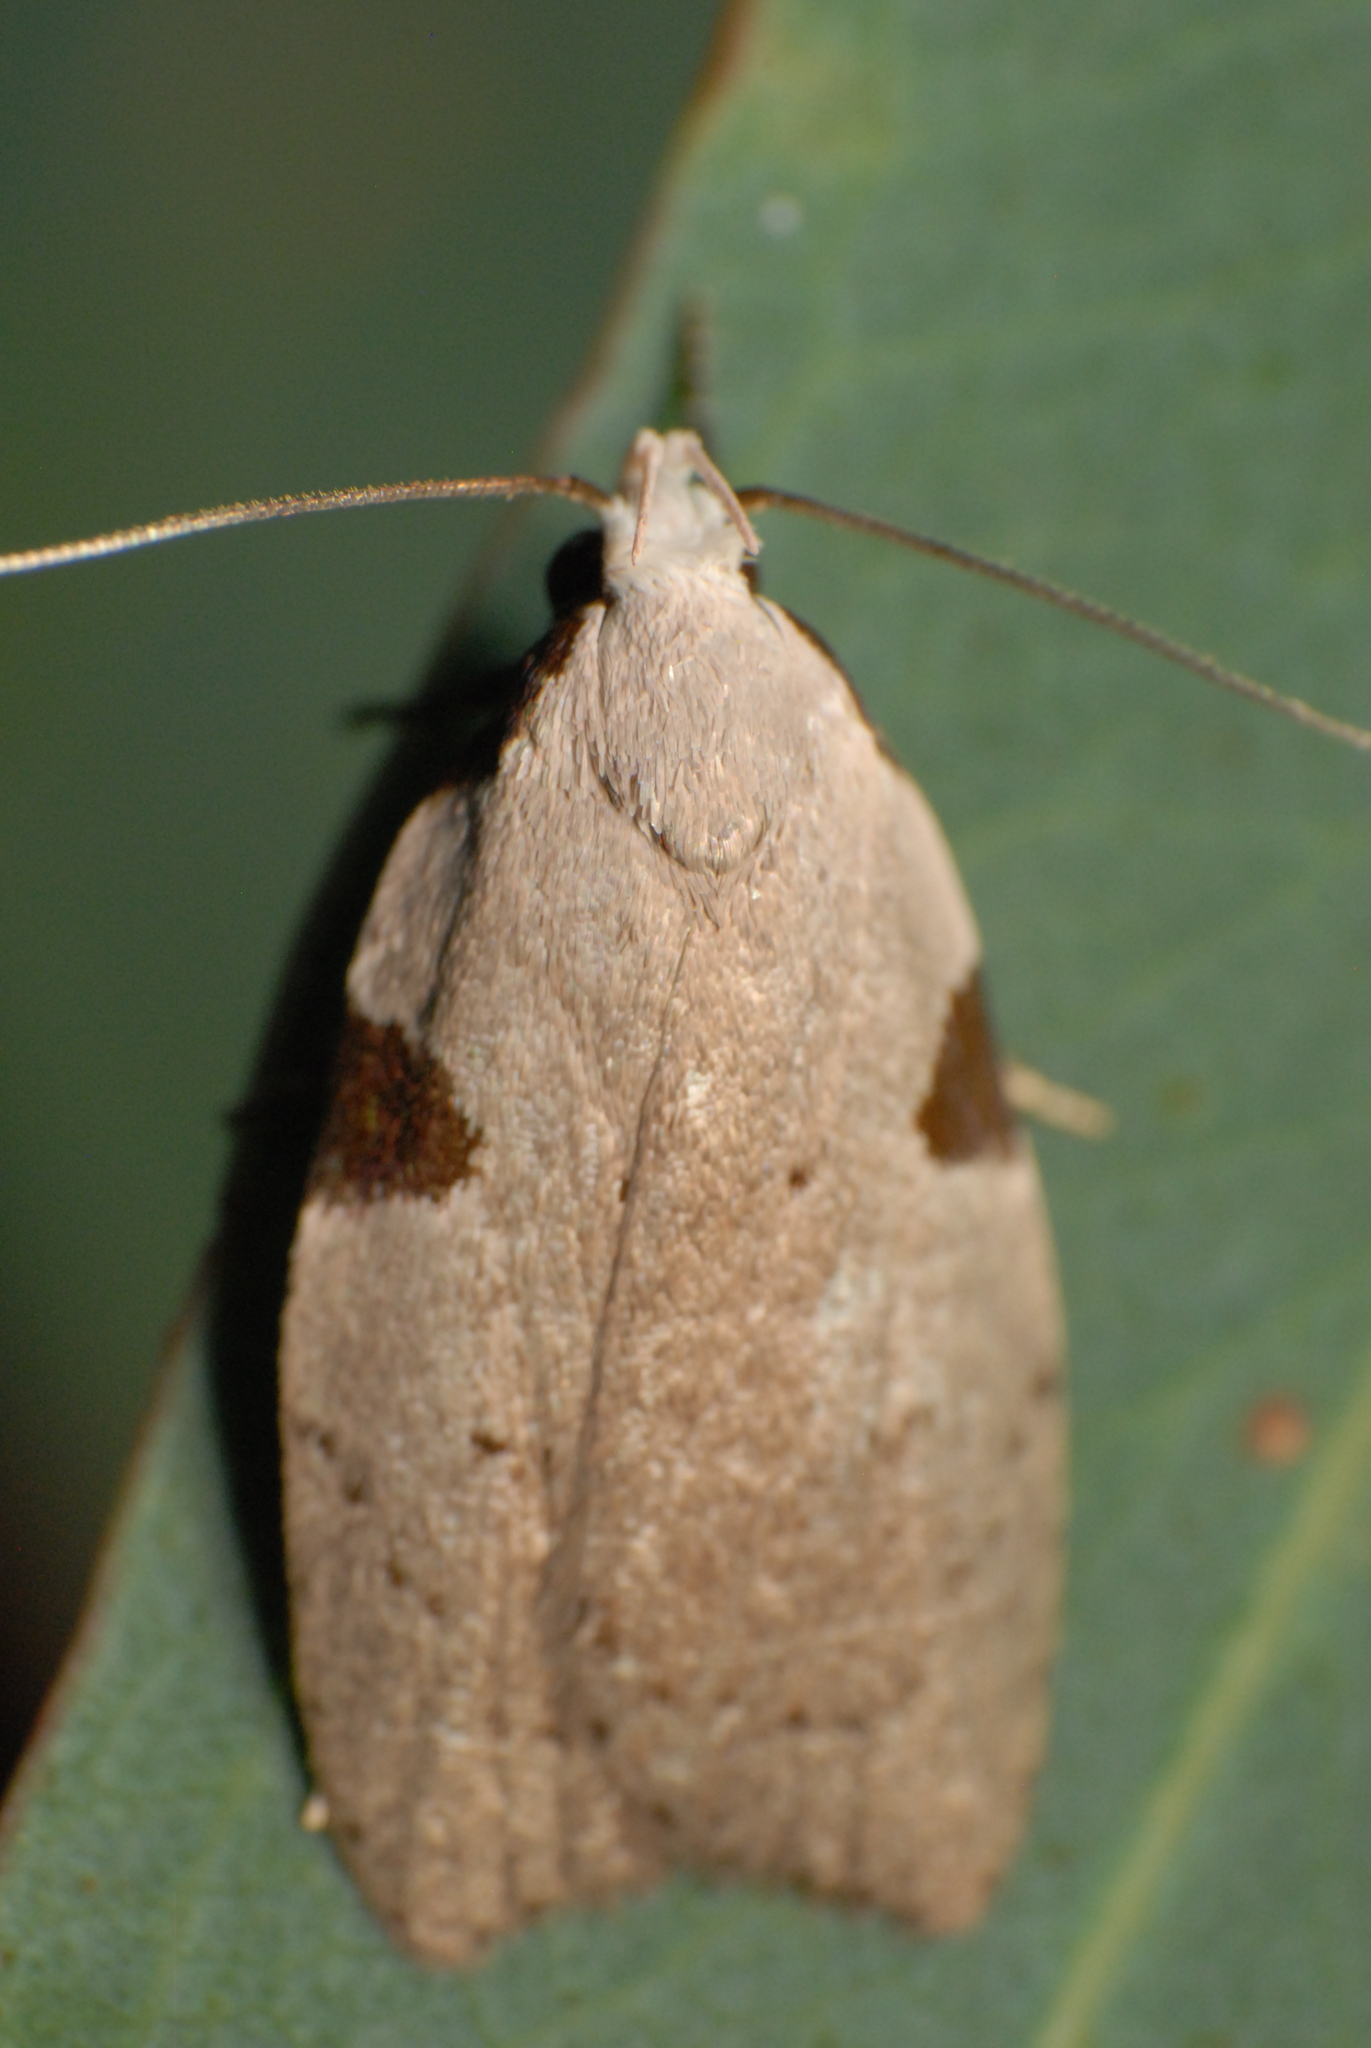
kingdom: Animalia
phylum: Arthropoda
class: Insecta
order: Lepidoptera
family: Oecophoridae
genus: Zonopetala
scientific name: Zonopetala quadripustulella
